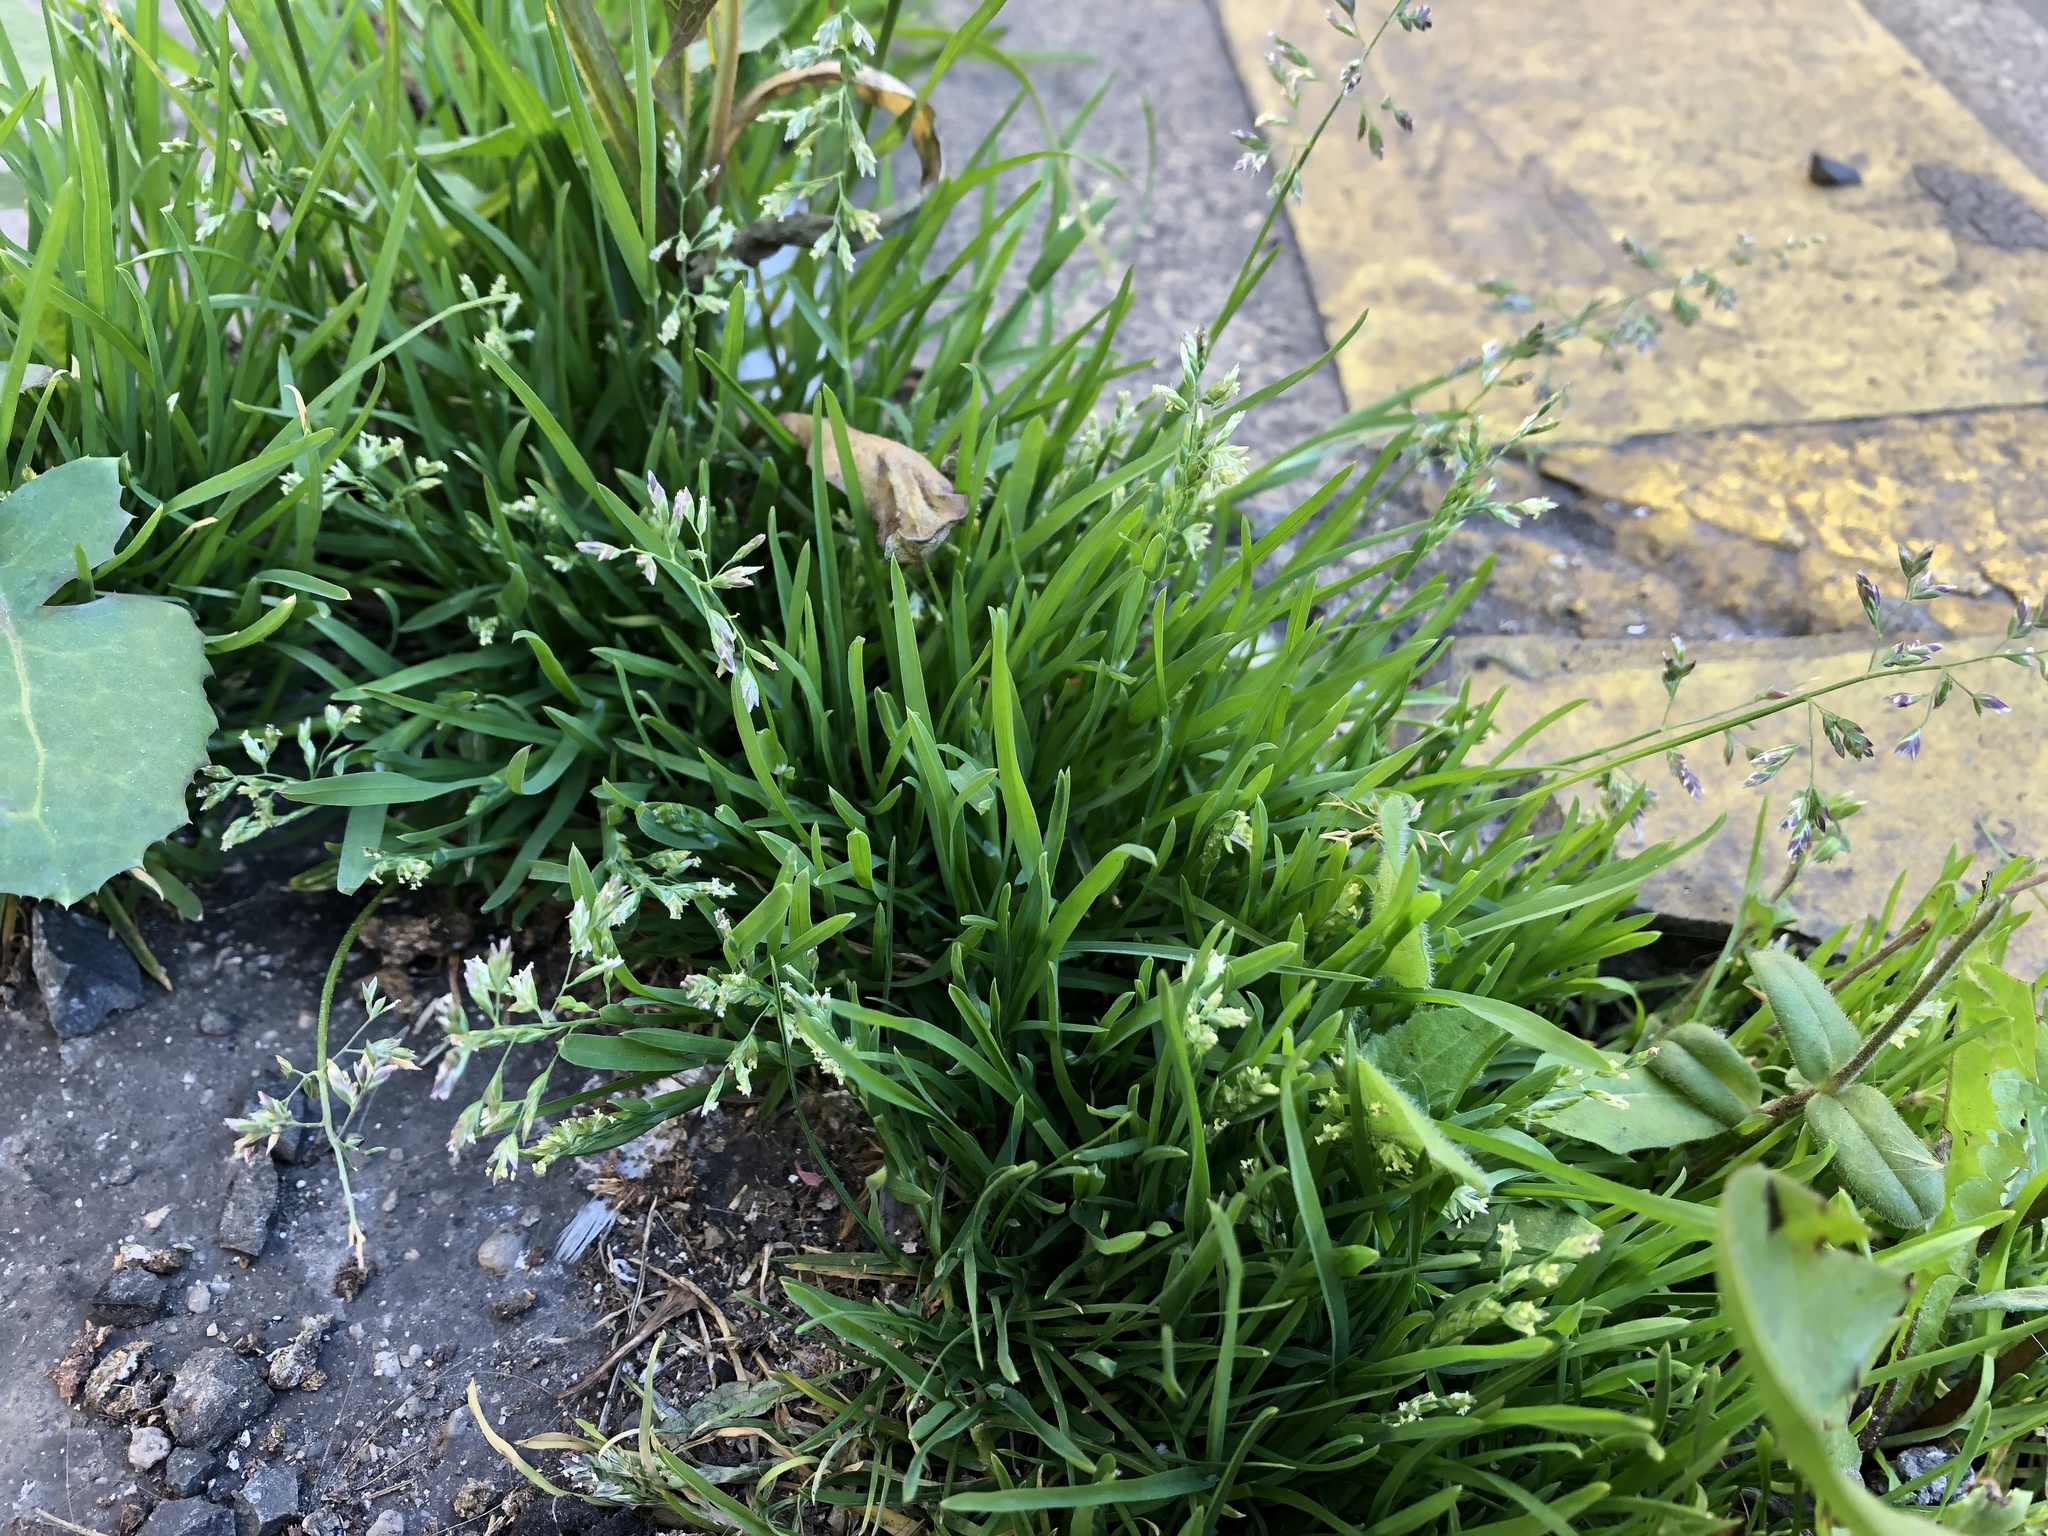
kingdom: Plantae
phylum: Tracheophyta
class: Liliopsida
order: Poales
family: Poaceae
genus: Poa
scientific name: Poa annua
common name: Annual bluegrass
